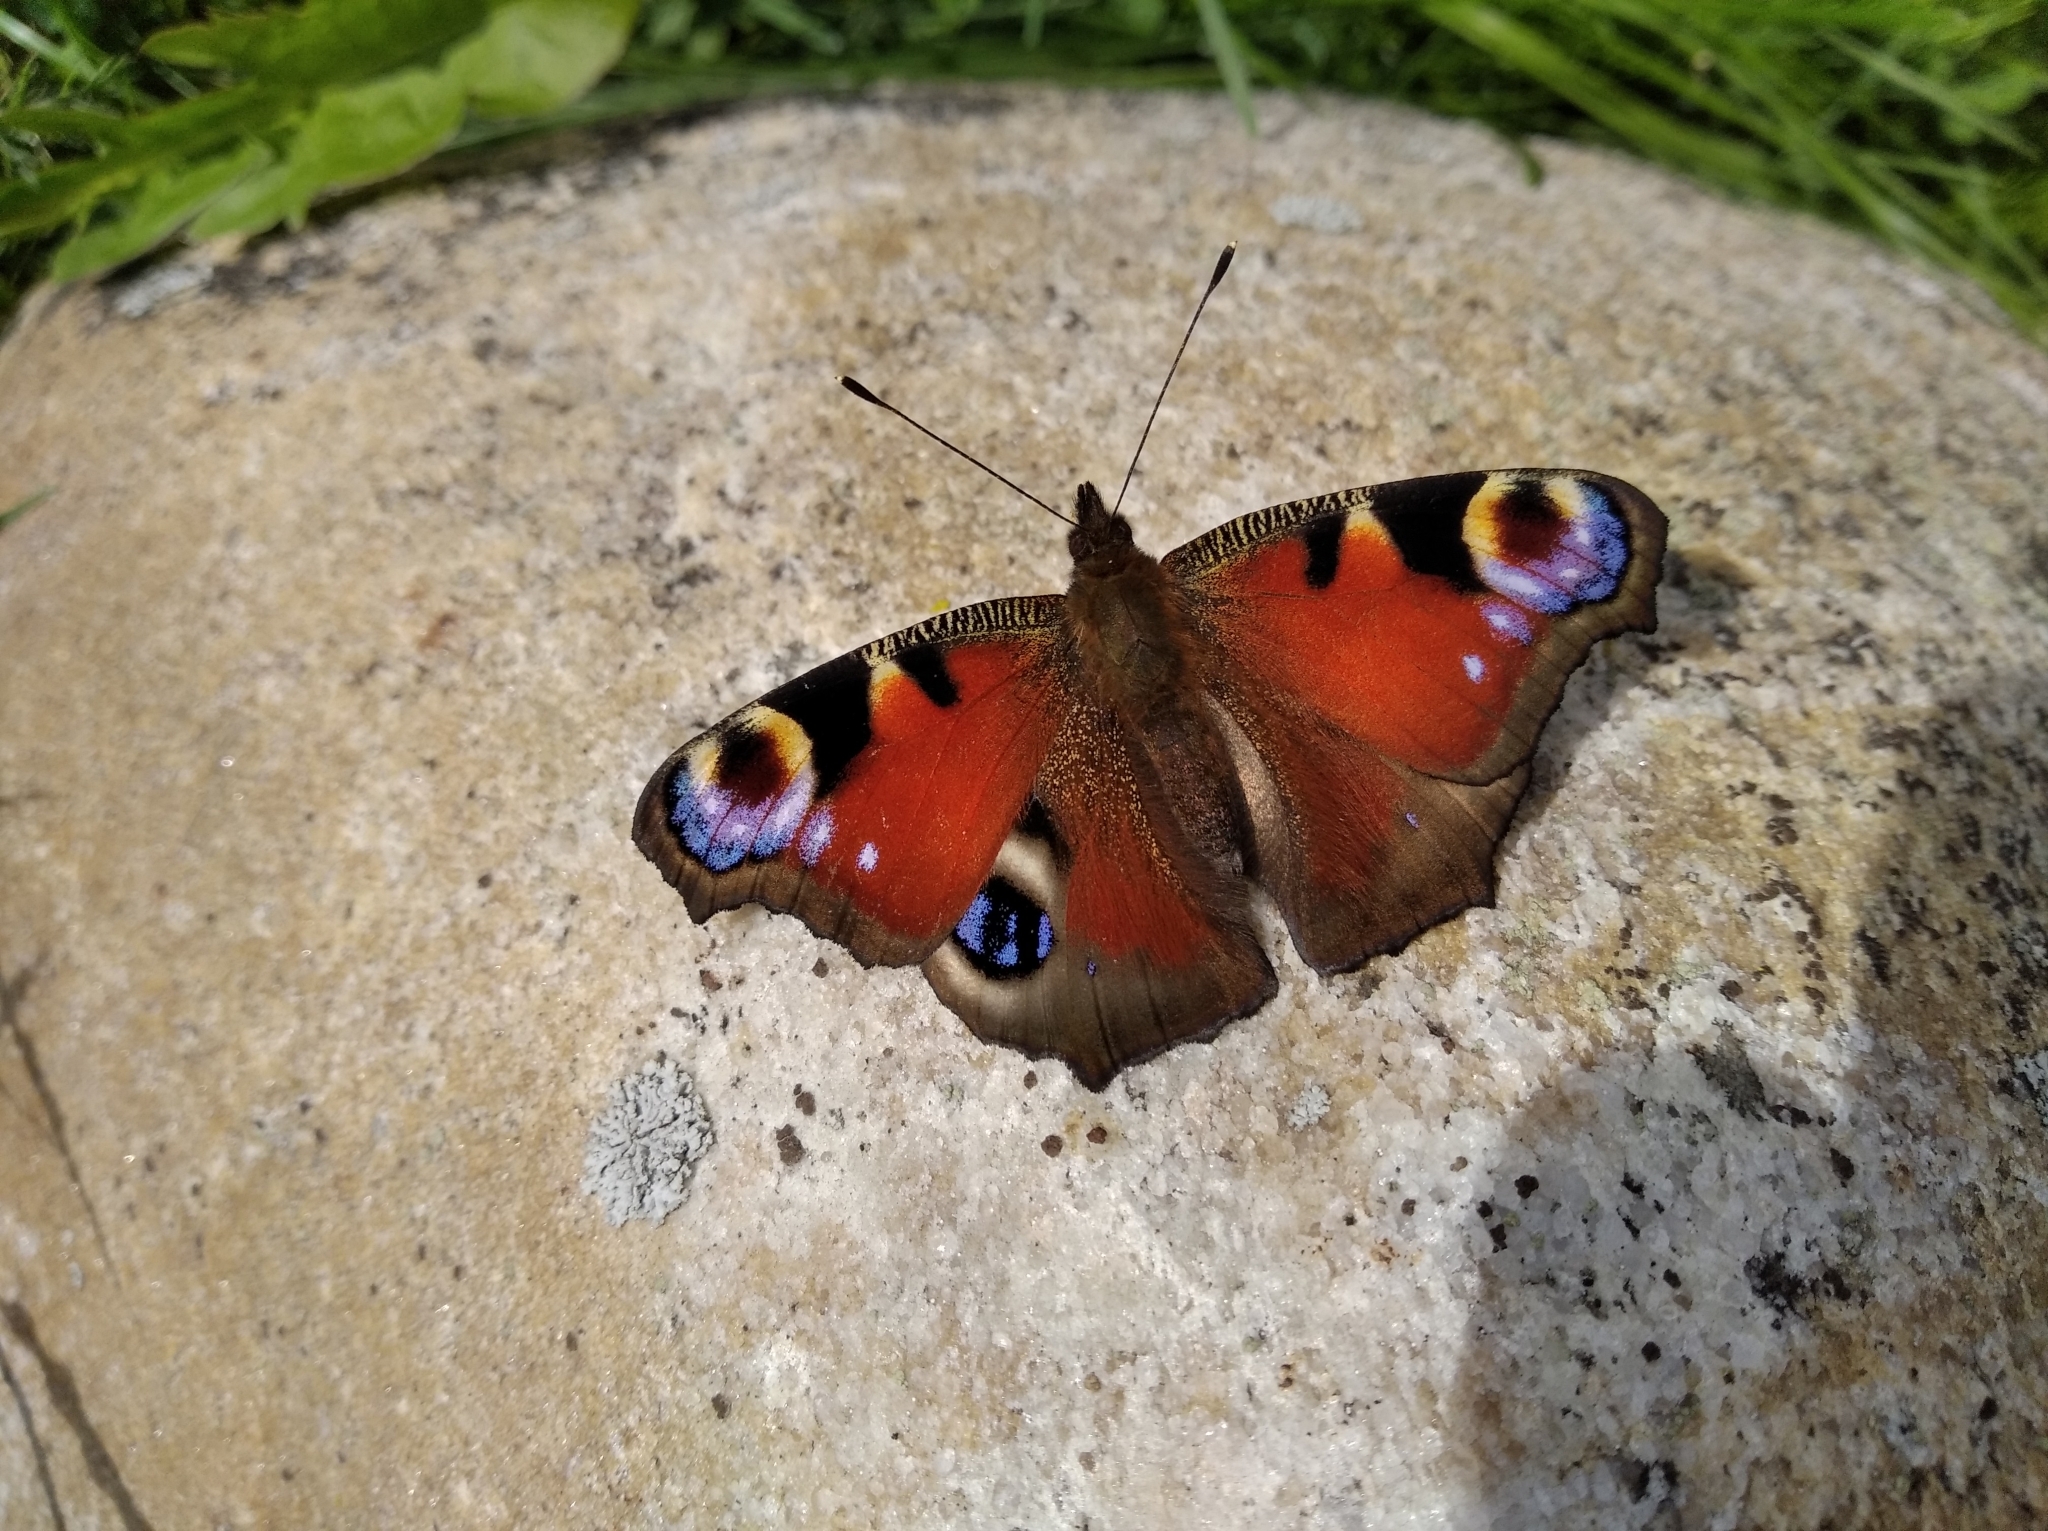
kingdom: Animalia
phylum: Arthropoda
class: Insecta
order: Lepidoptera
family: Nymphalidae
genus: Aglais
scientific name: Aglais io
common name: Peacock
